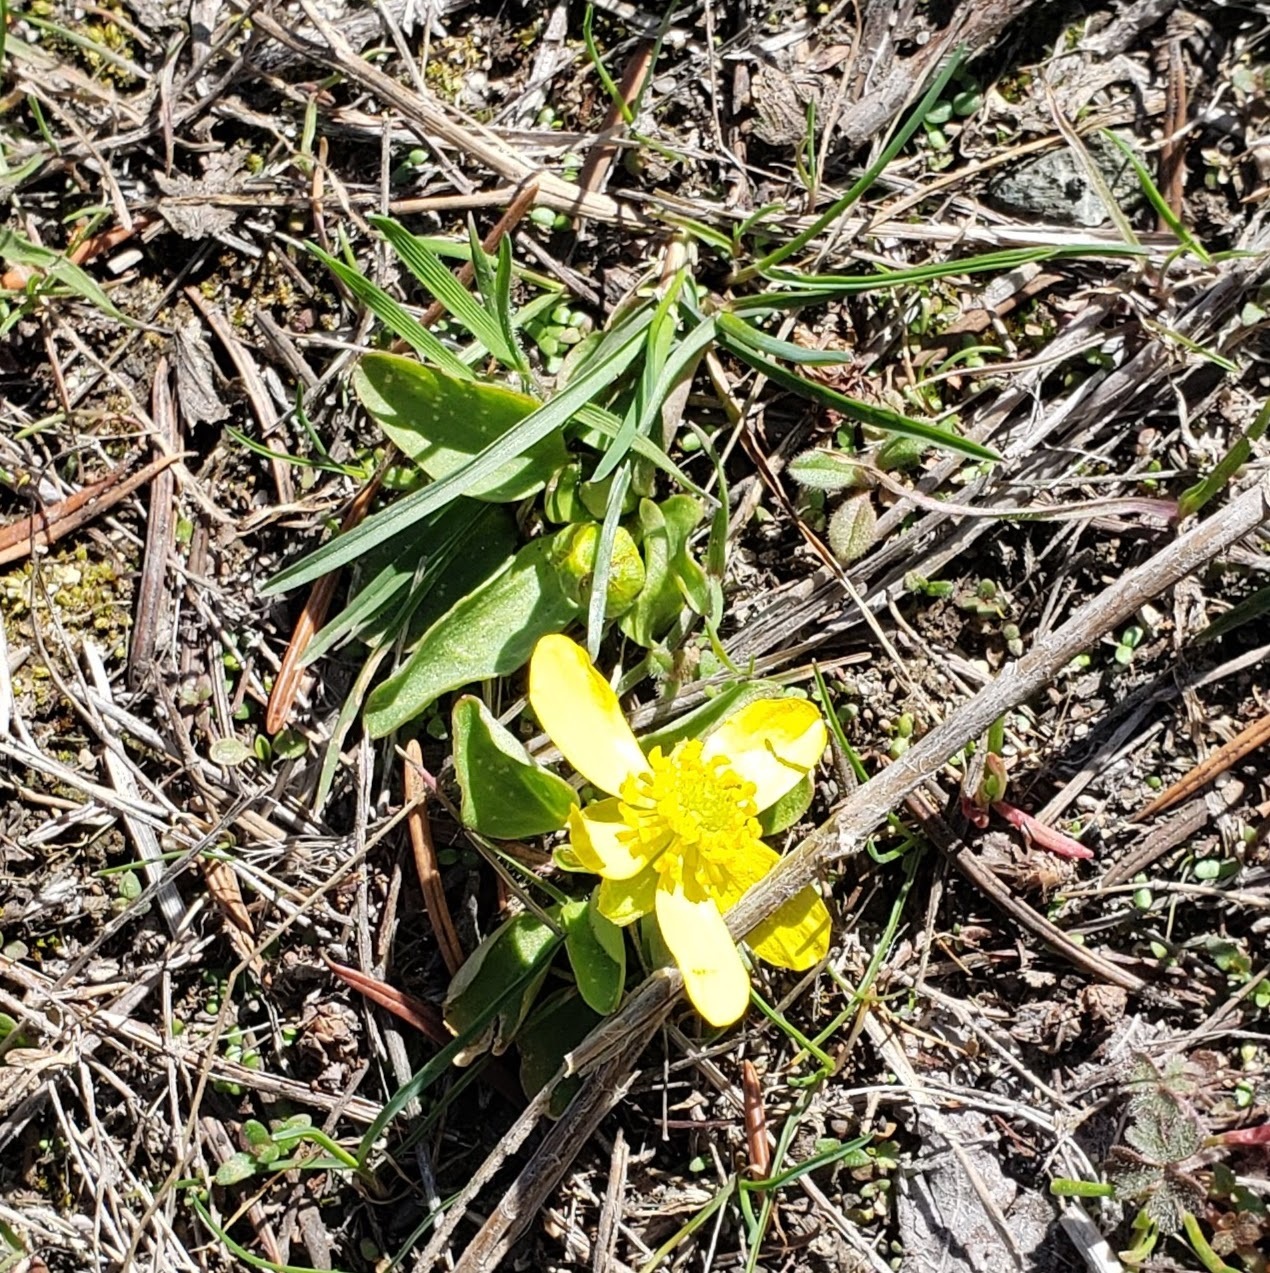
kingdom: Plantae
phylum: Tracheophyta
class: Magnoliopsida
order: Ranunculales
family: Ranunculaceae
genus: Ranunculus
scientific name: Ranunculus glaberrimus
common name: Sagebrush buttercup
